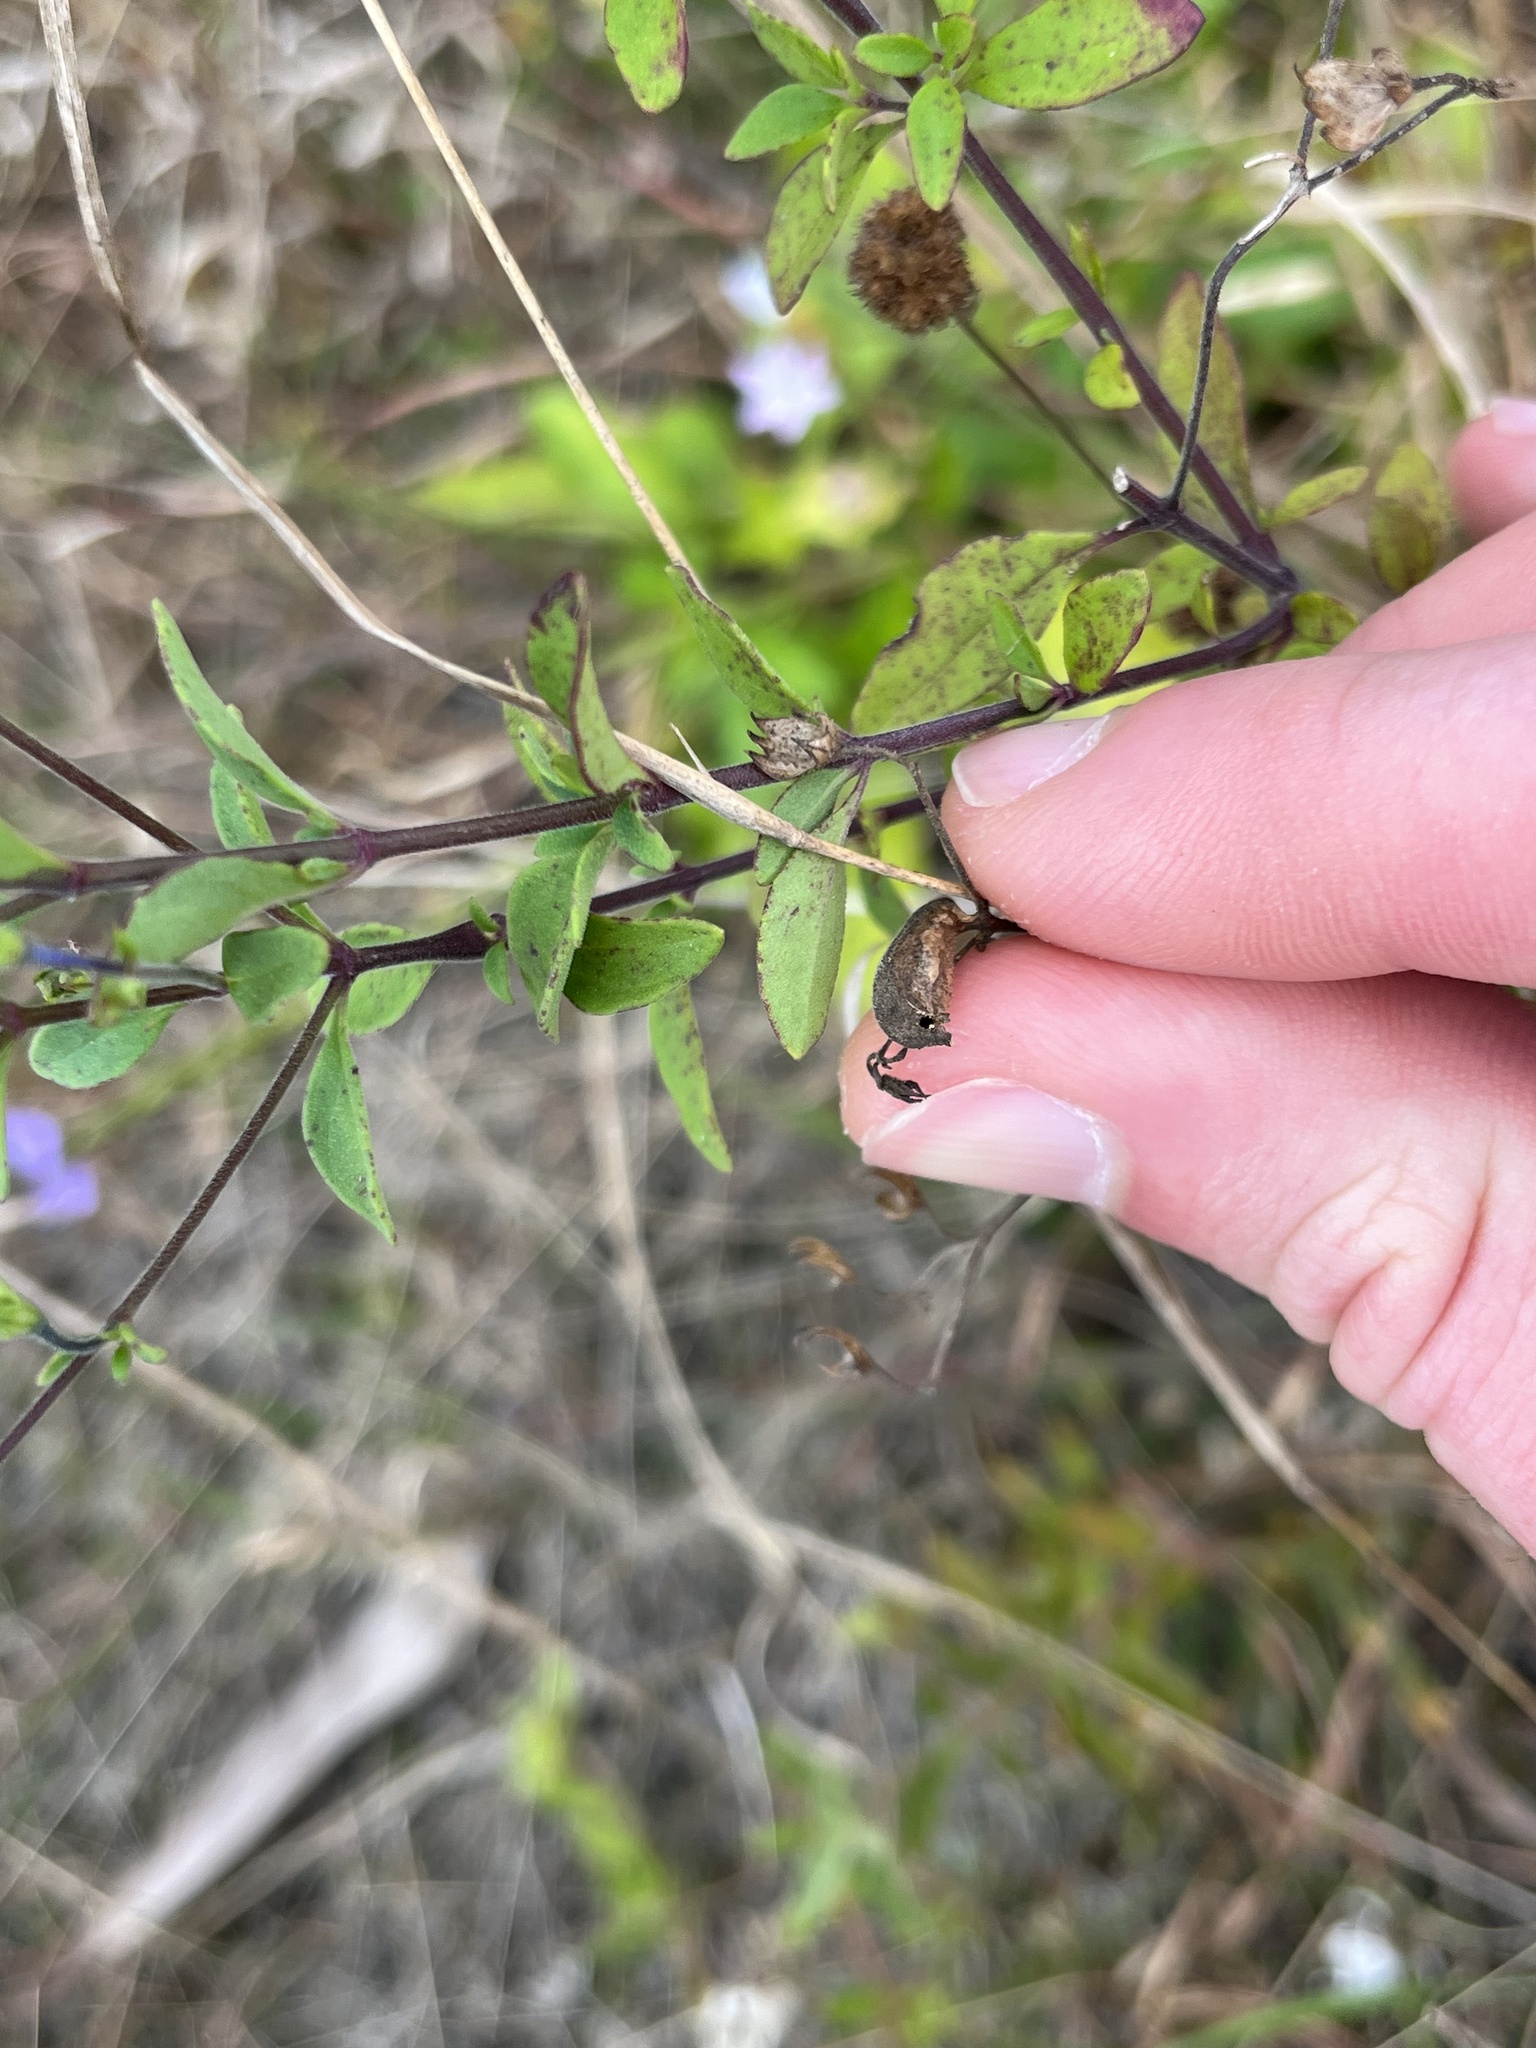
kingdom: Plantae
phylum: Tracheophyta
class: Magnoliopsida
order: Lamiales
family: Lamiaceae
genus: Trichostema
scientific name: Trichostema
